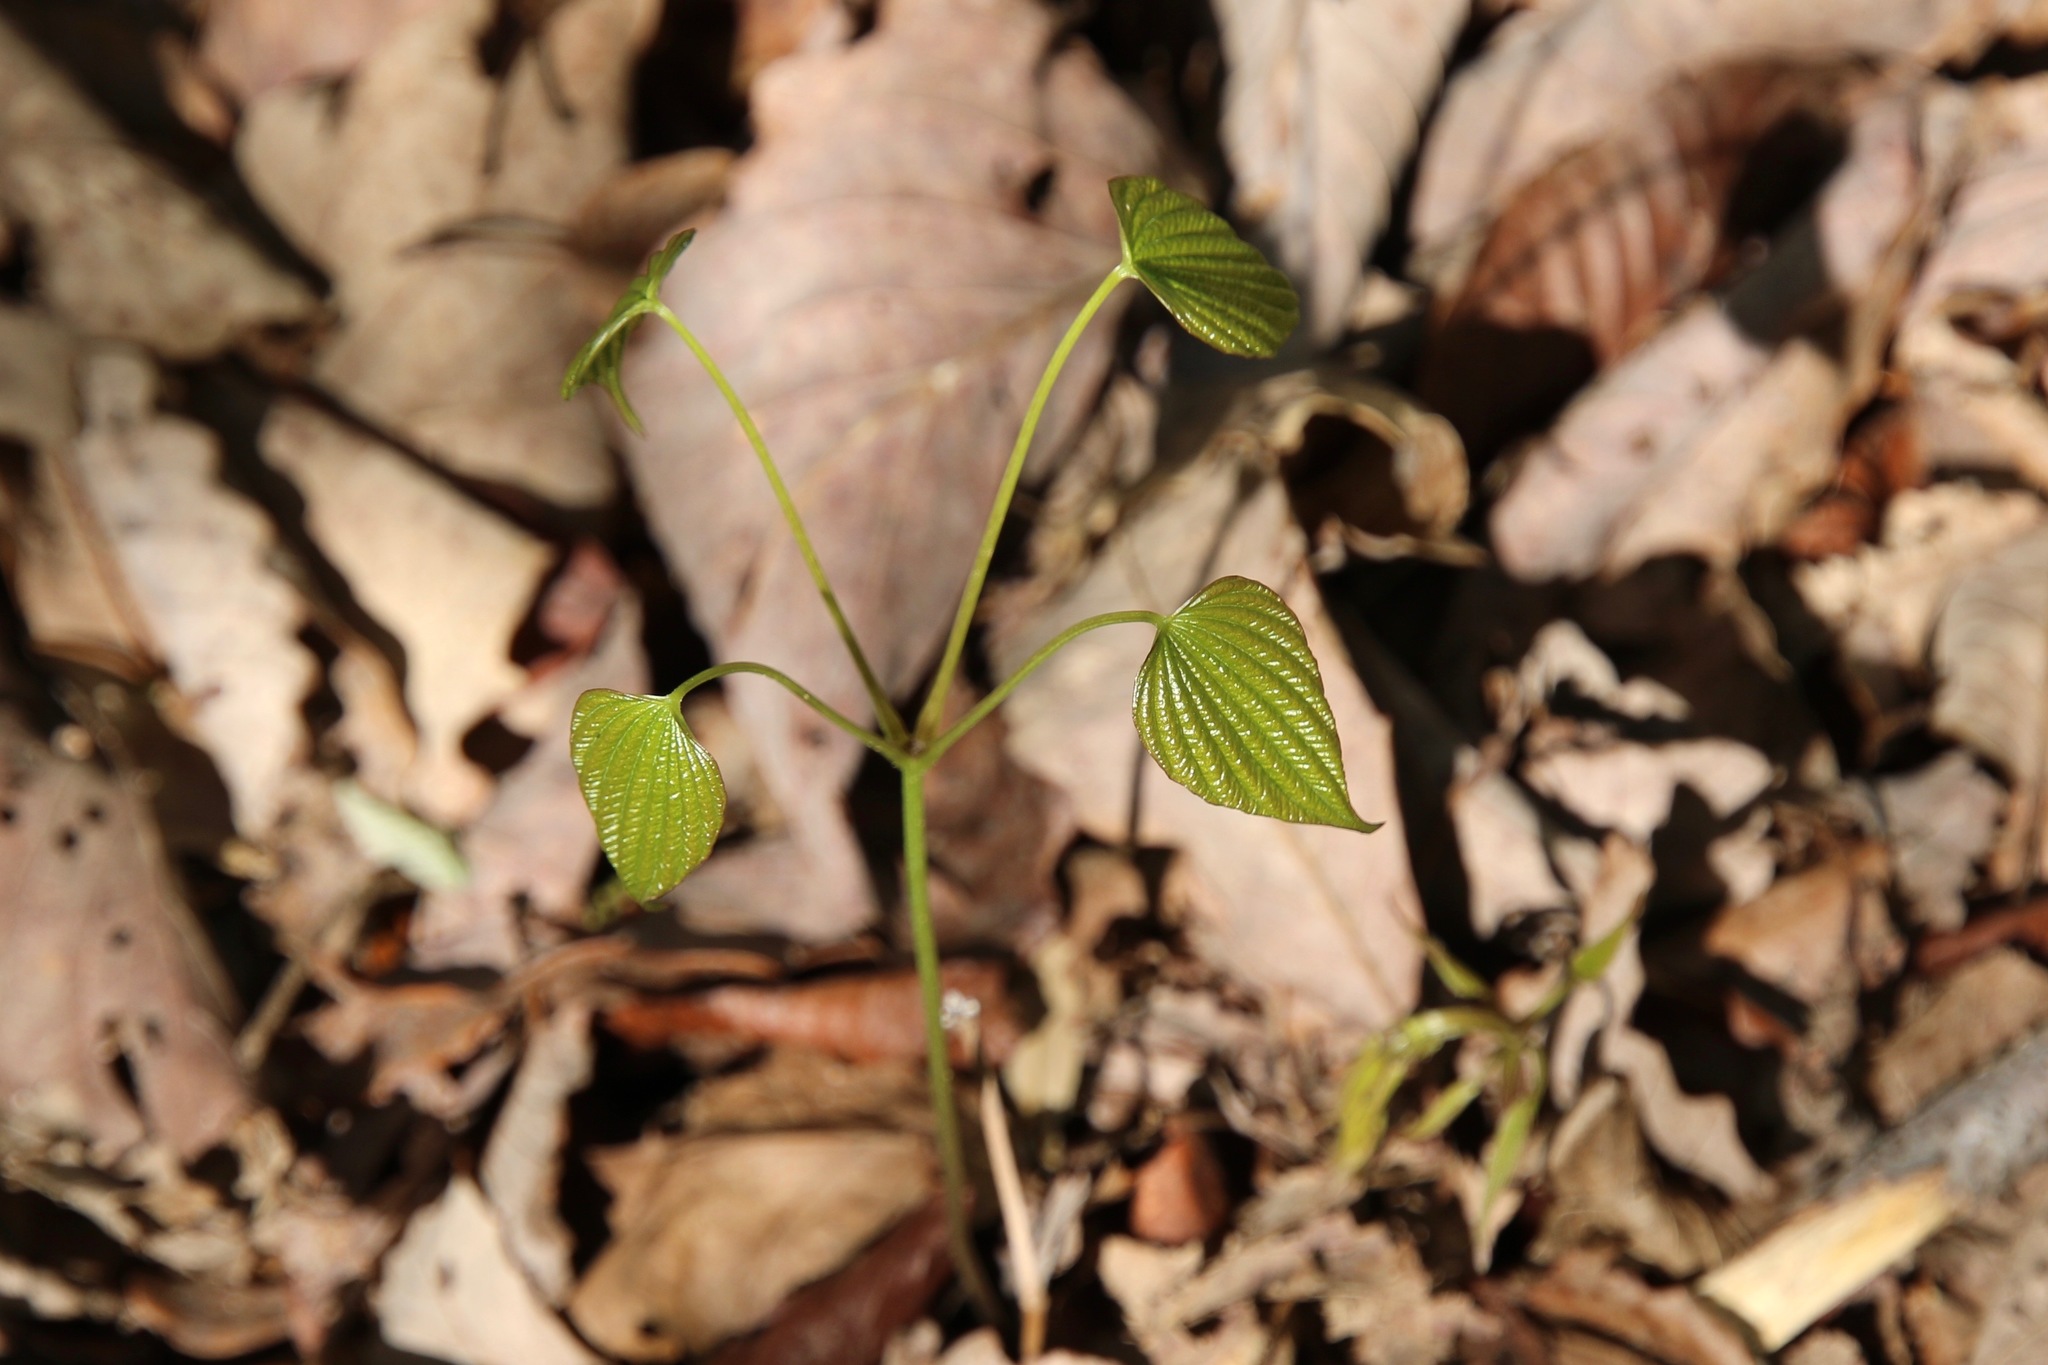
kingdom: Plantae
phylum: Tracheophyta
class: Liliopsida
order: Dioscoreales
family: Dioscoreaceae
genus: Dioscorea
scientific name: Dioscorea villosa
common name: Wild yam
